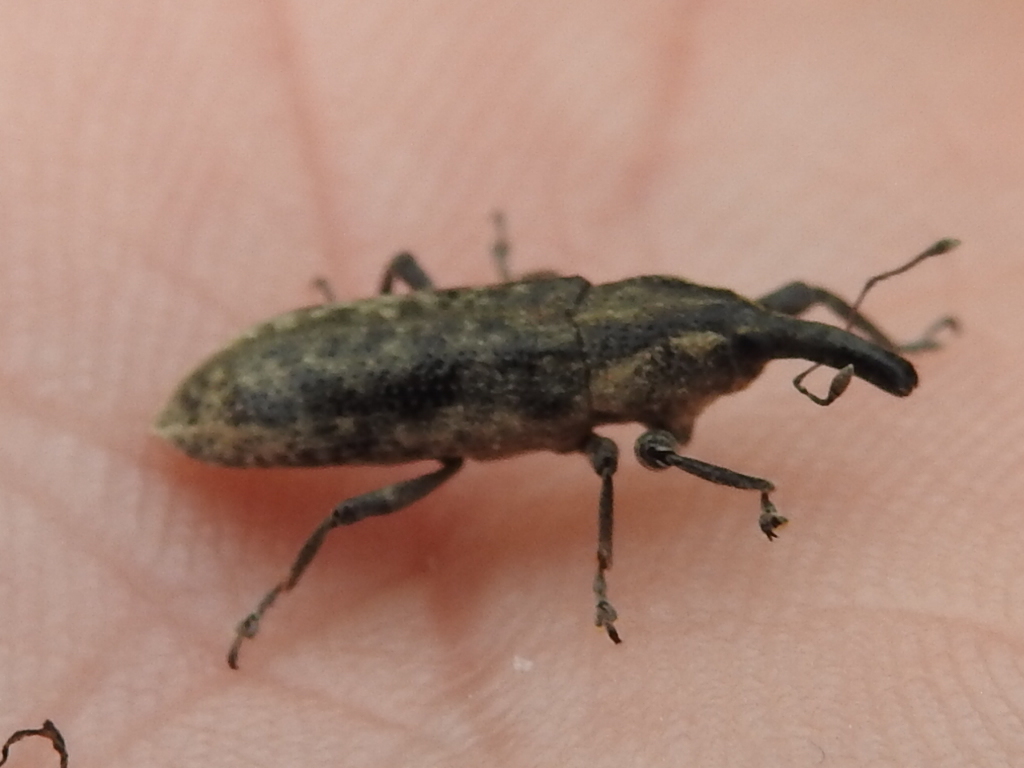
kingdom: Animalia
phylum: Arthropoda
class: Insecta
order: Coleoptera
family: Curculionidae
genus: Lixus
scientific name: Lixus scrobicollis
